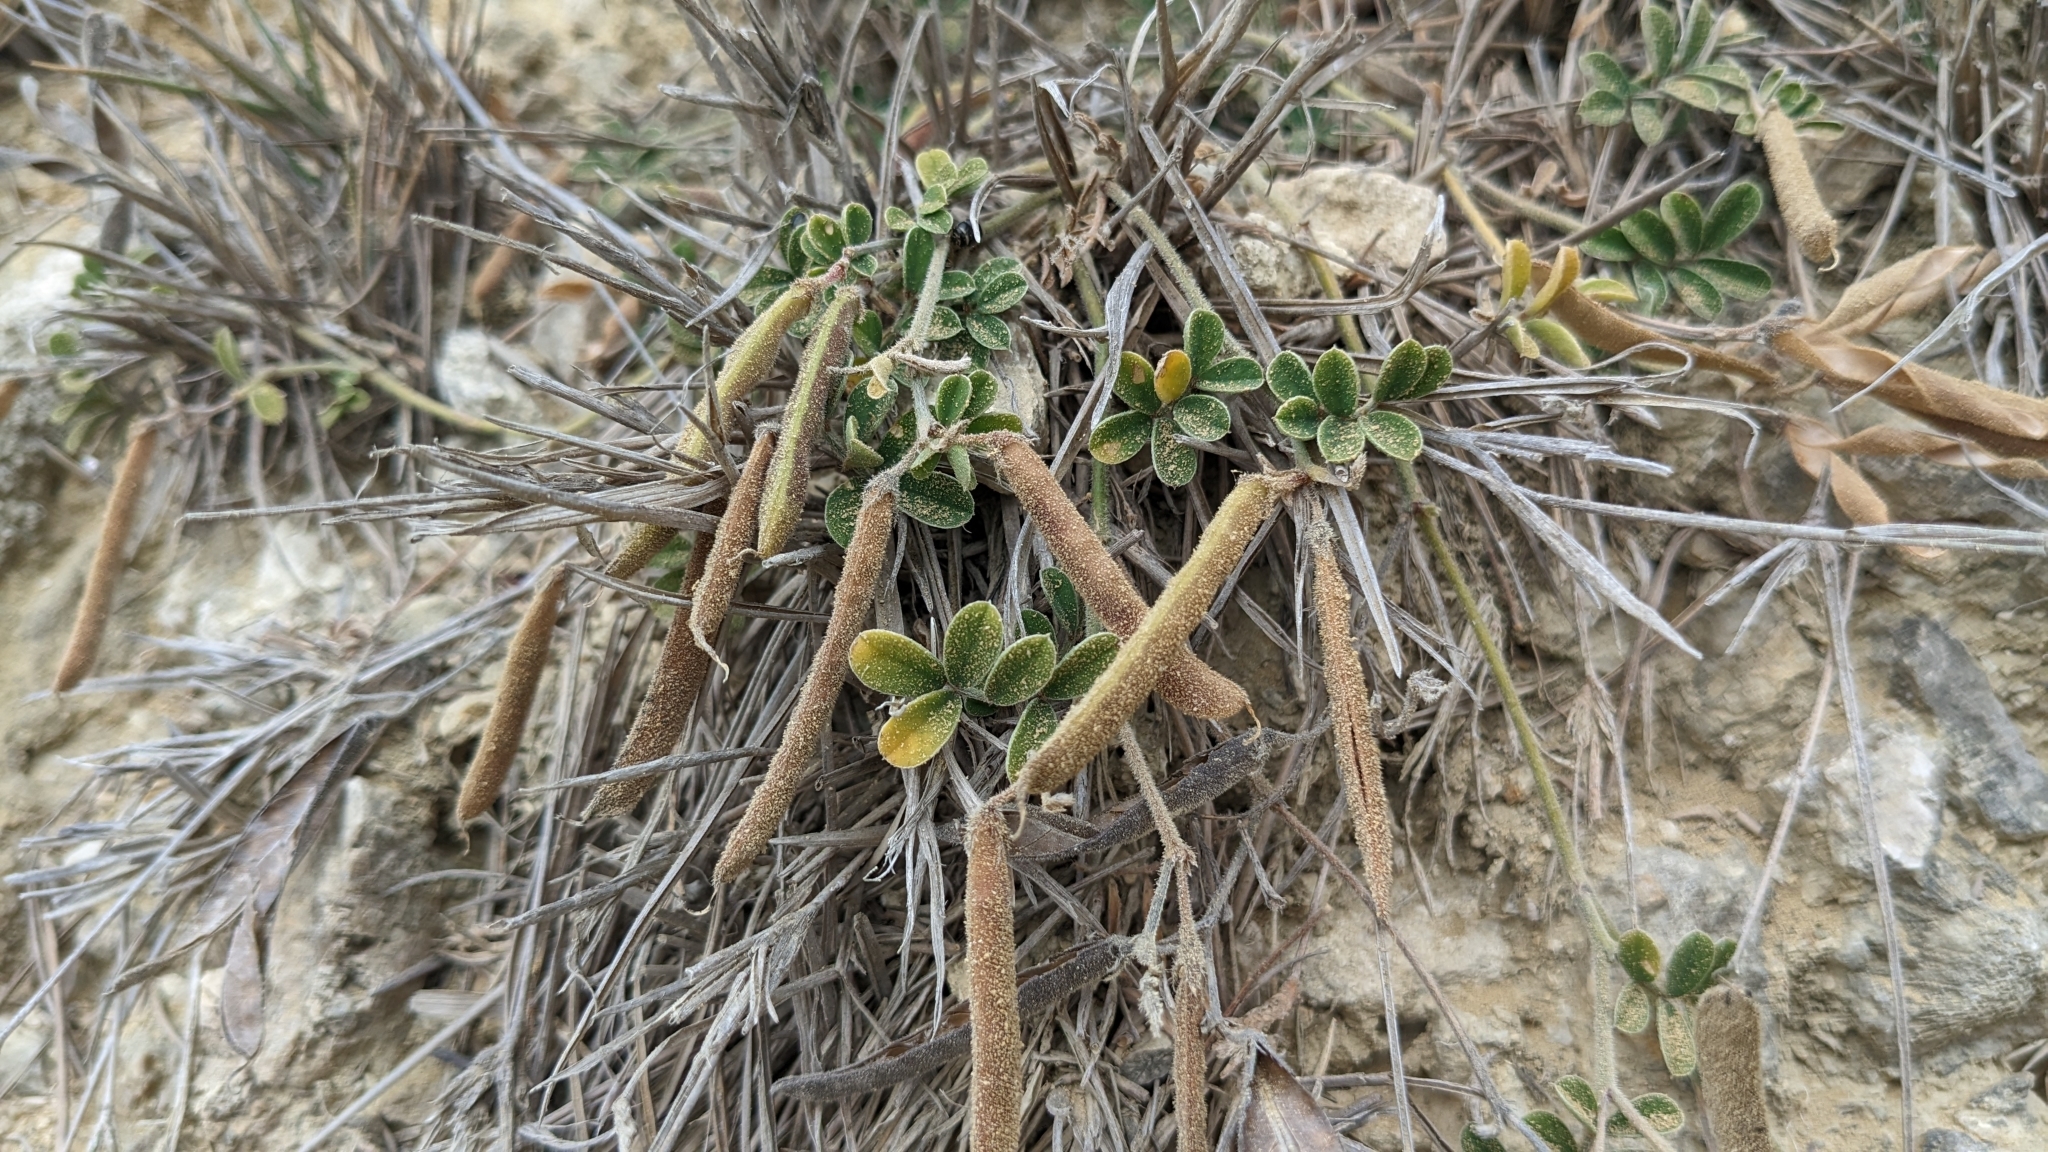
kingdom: Plantae
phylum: Tracheophyta
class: Magnoliopsida
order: Fabales
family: Fabaceae
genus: Tephrosia
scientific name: Tephrosia obovata
